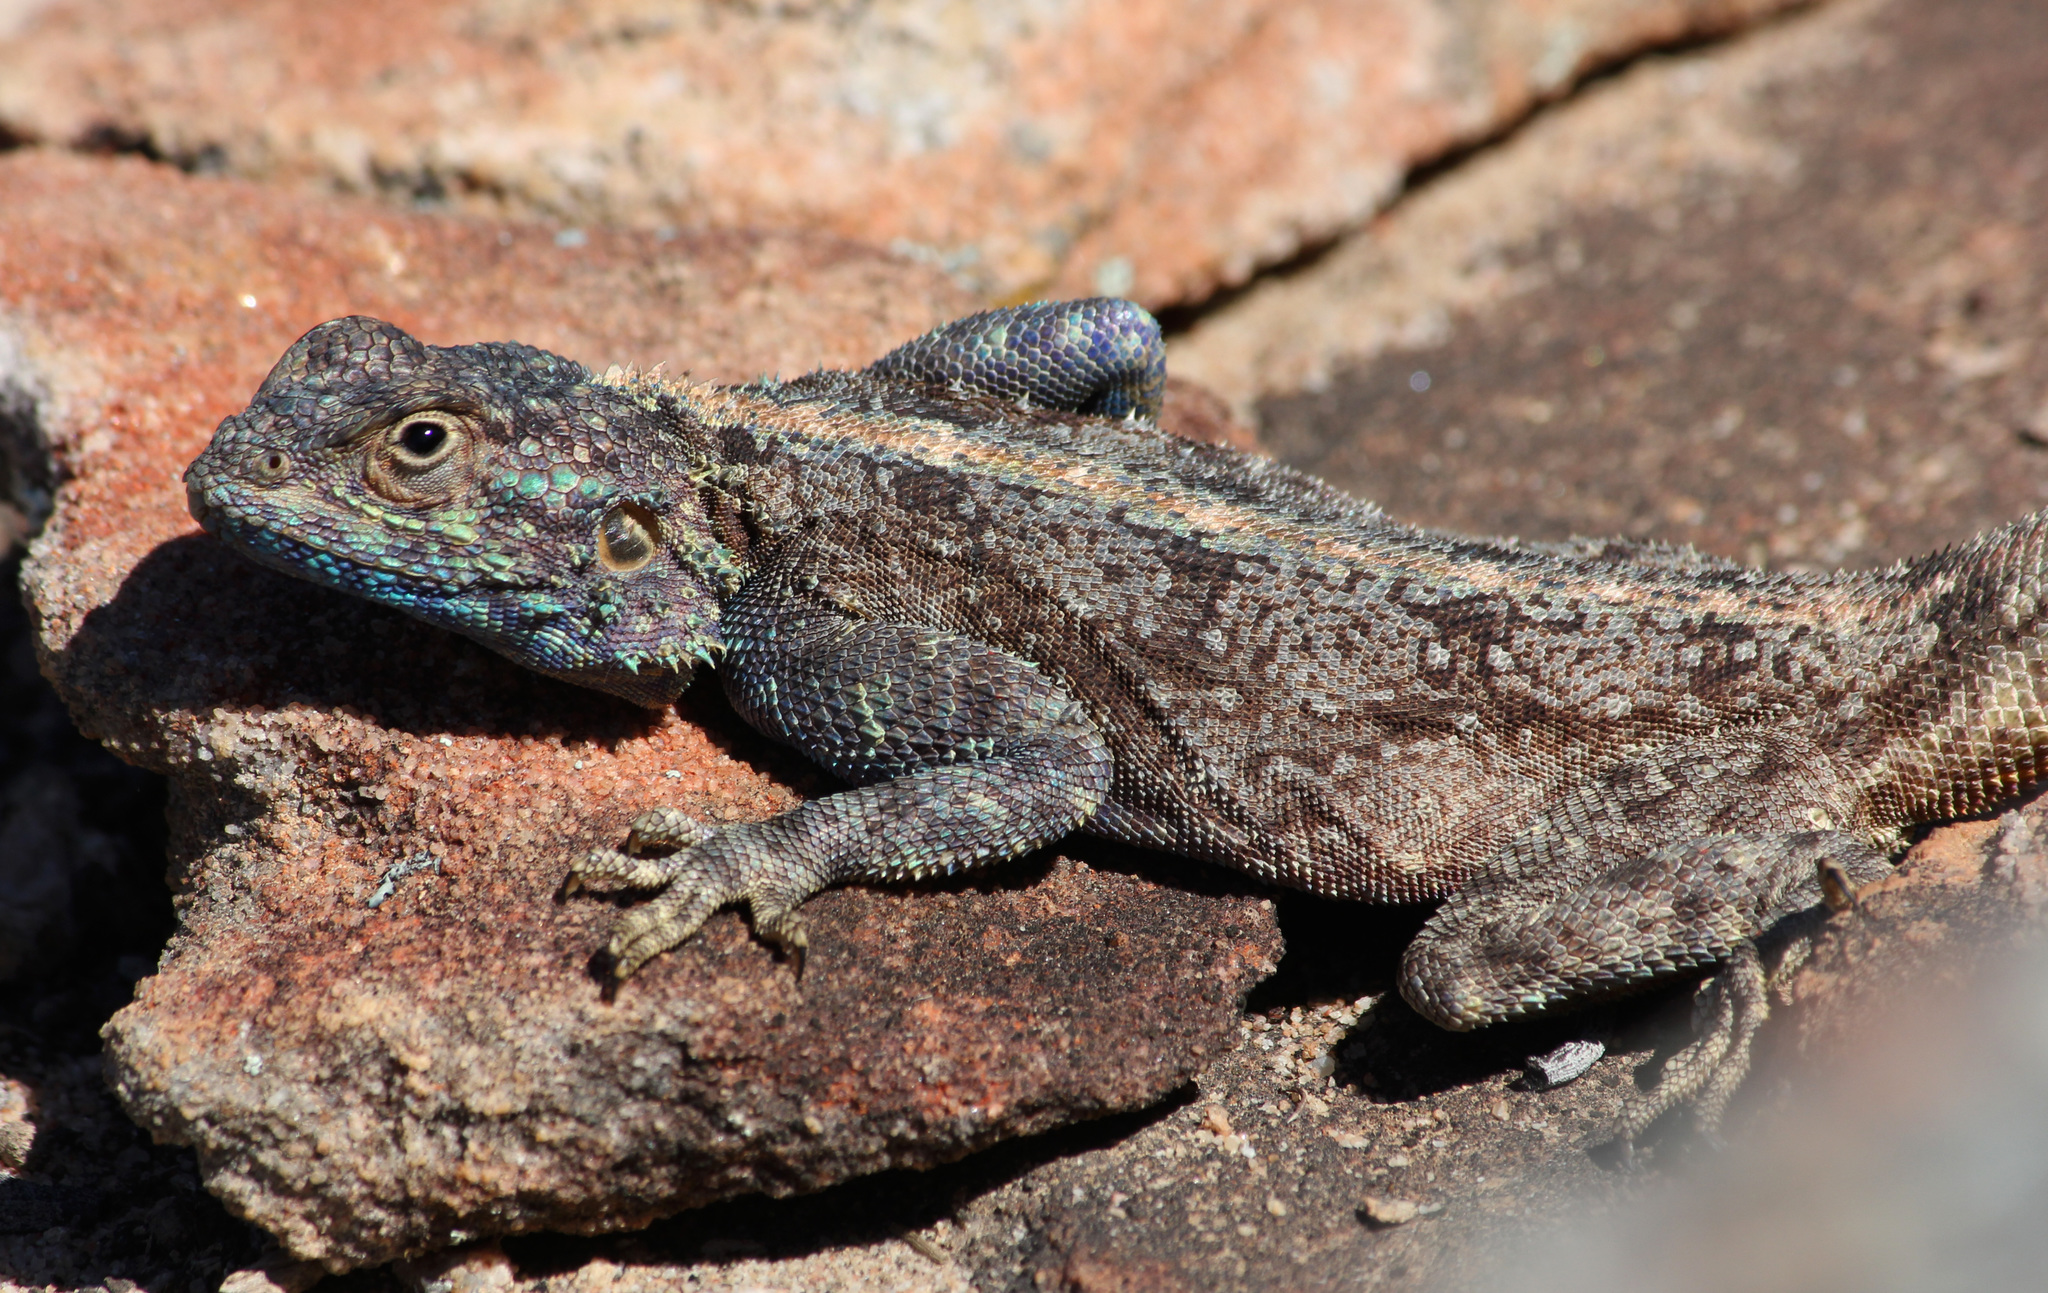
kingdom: Animalia
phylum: Chordata
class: Squamata
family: Agamidae
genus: Agama
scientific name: Agama atra
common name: Southern african rock agama
